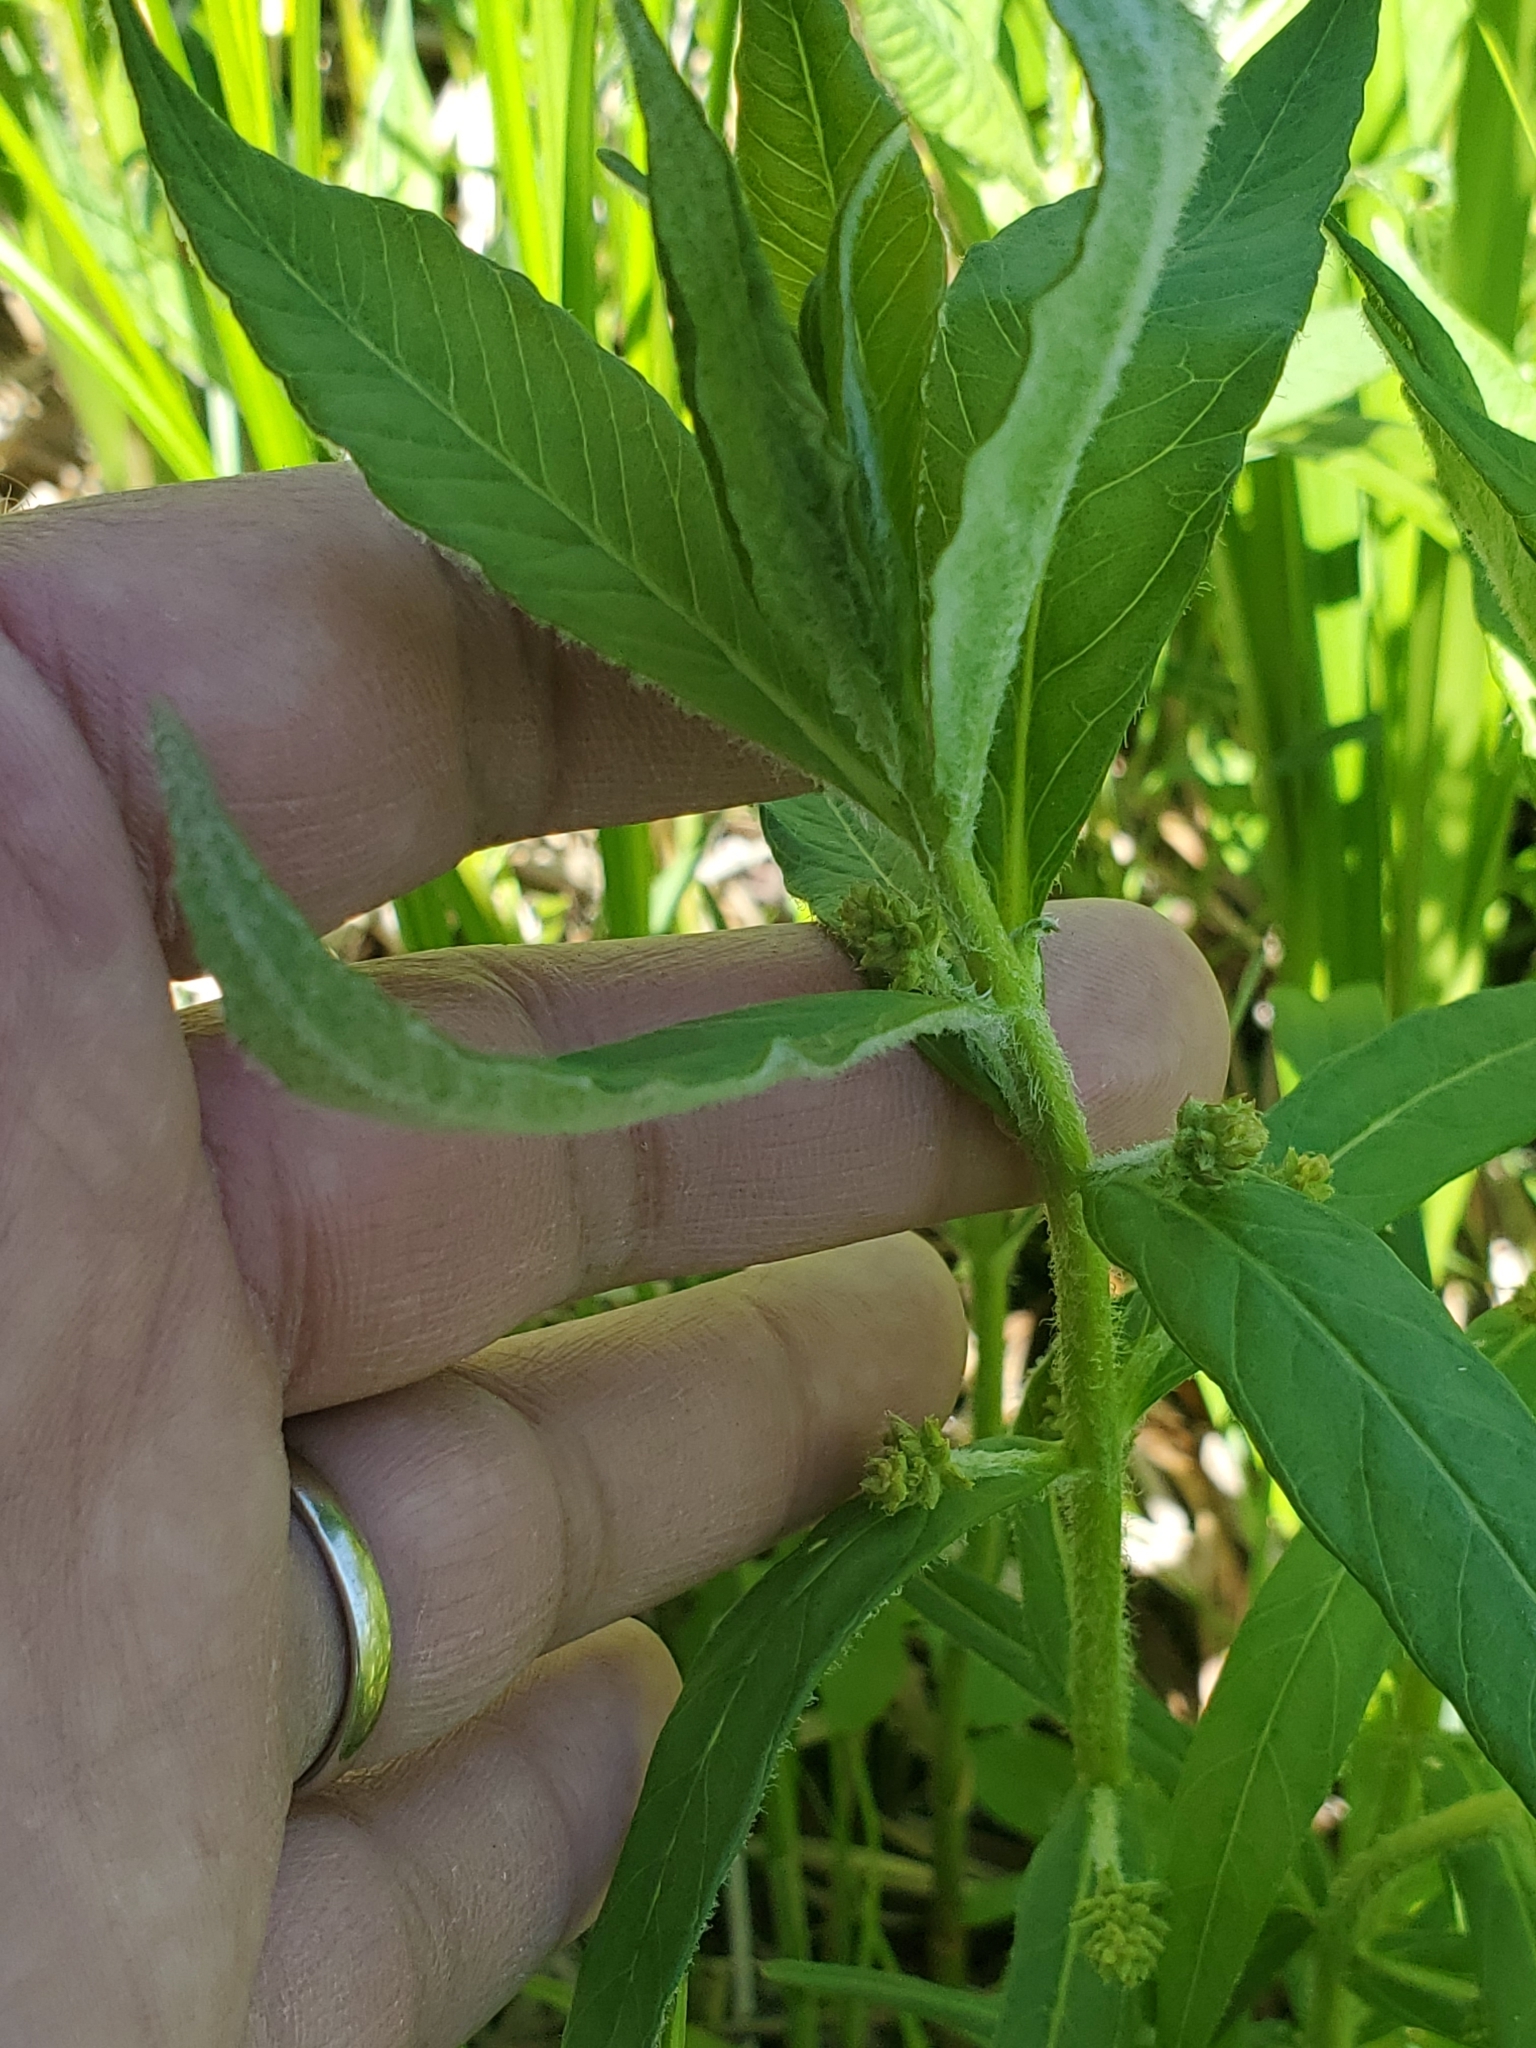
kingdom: Plantae
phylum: Tracheophyta
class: Magnoliopsida
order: Ericales
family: Primulaceae
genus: Lysimachia
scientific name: Lysimachia thyrsiflora
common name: Tufted loosestrife
